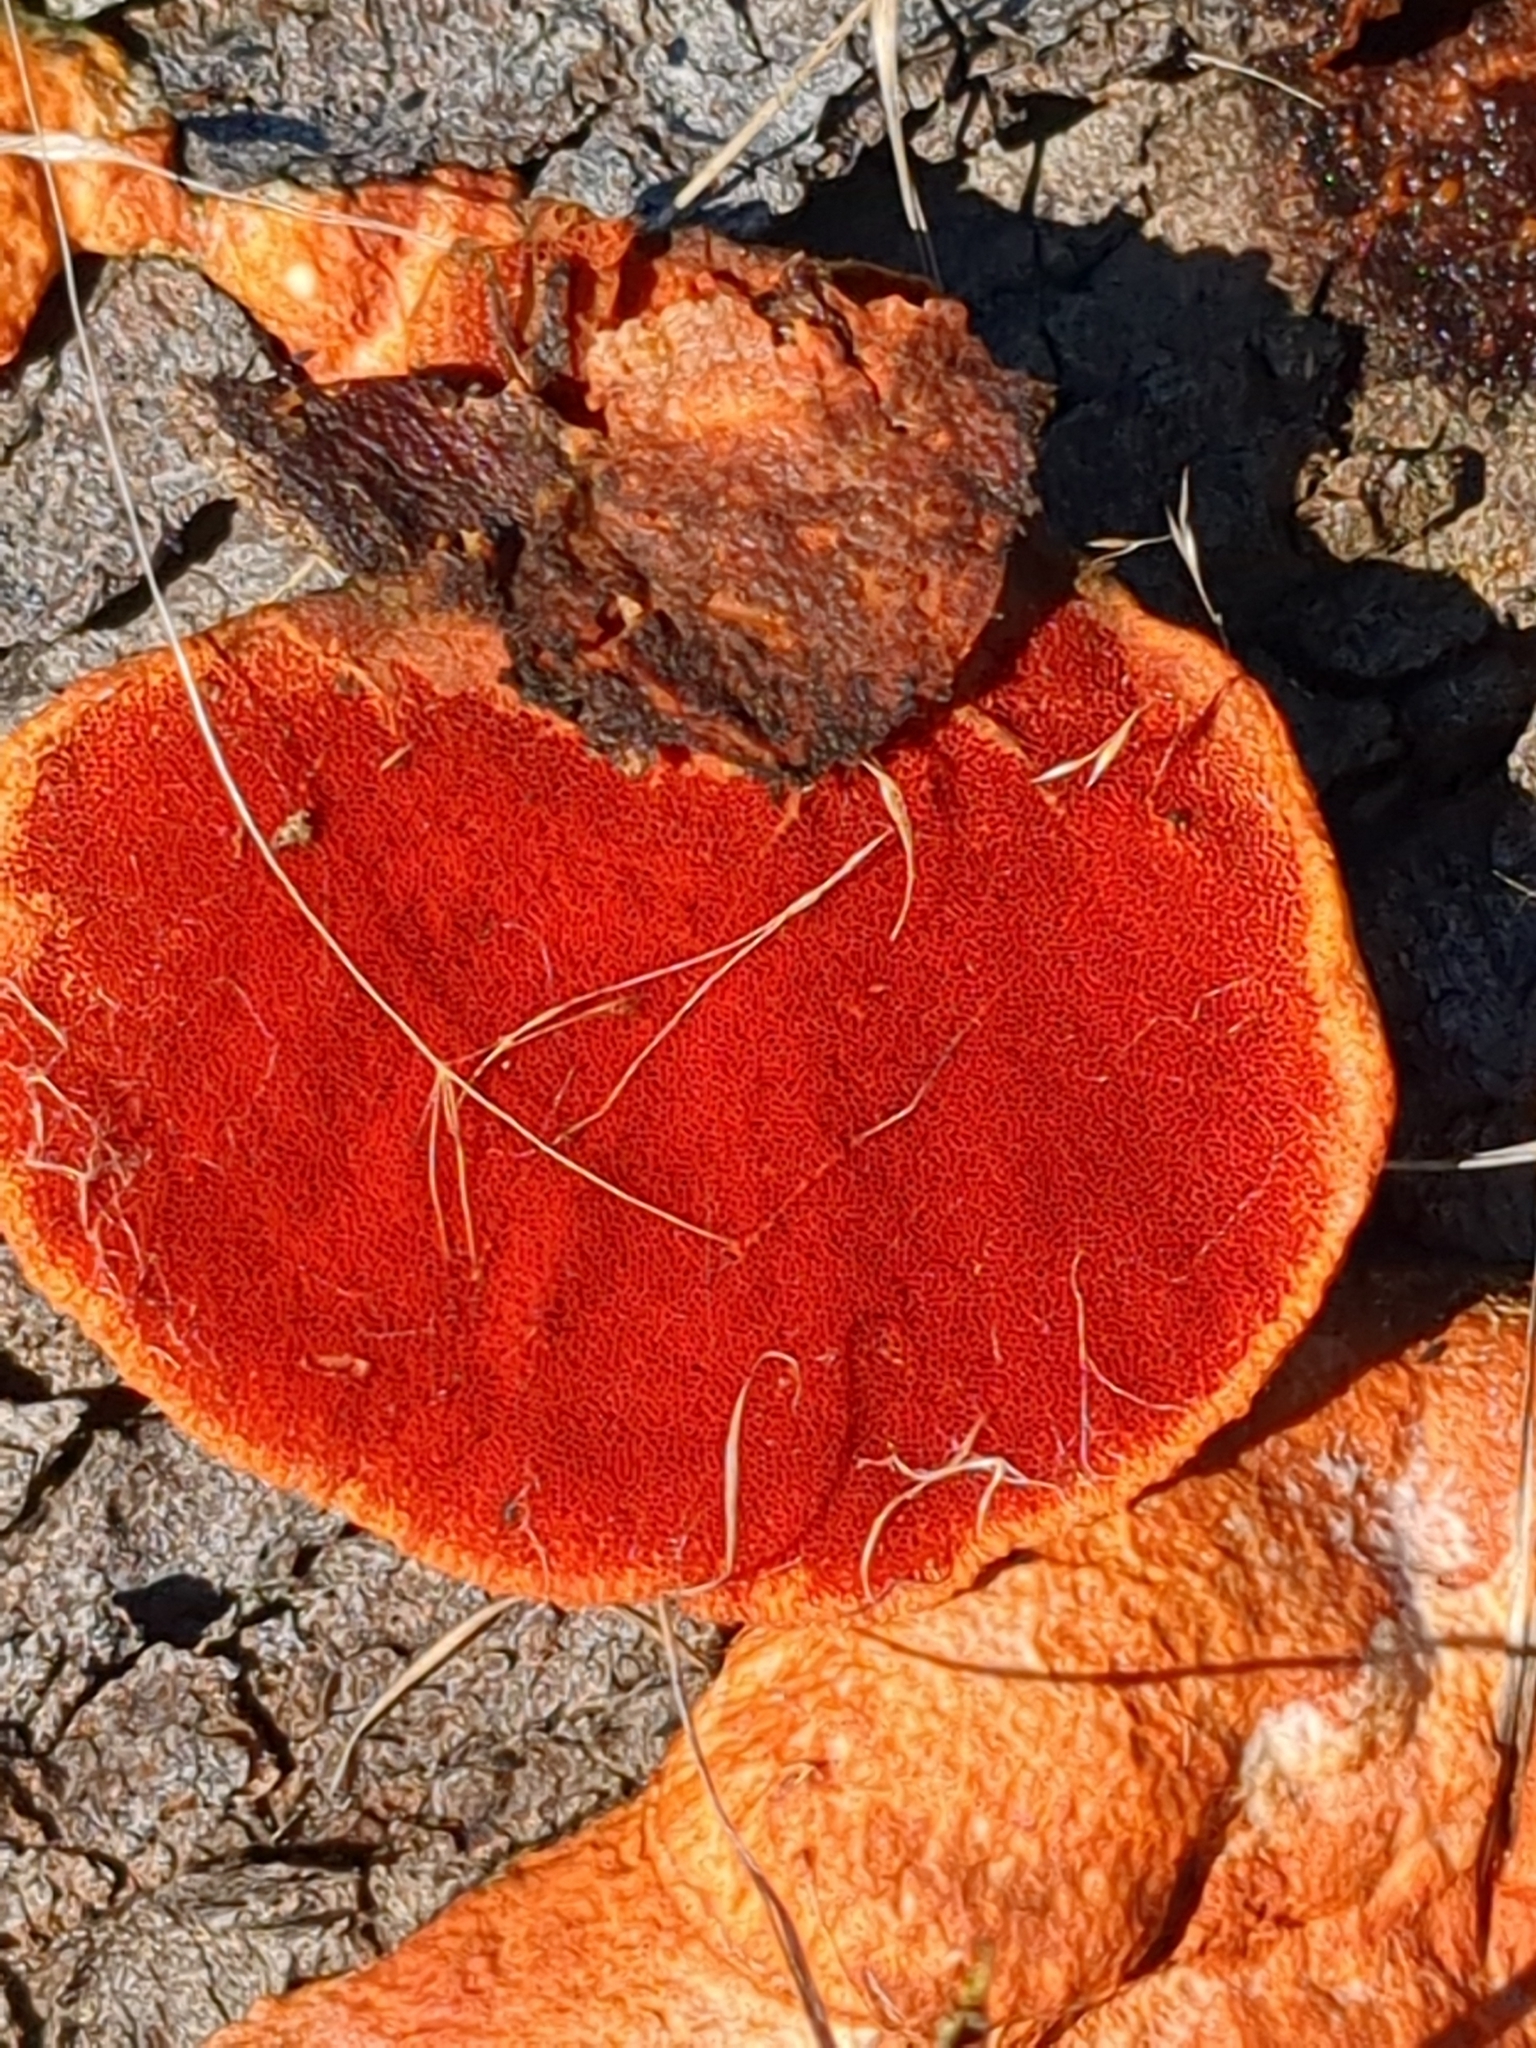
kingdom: Fungi
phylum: Basidiomycota
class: Agaricomycetes
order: Polyporales
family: Polyporaceae
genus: Trametes
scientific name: Trametes cinnabarina
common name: Northern cinnabar polypore
